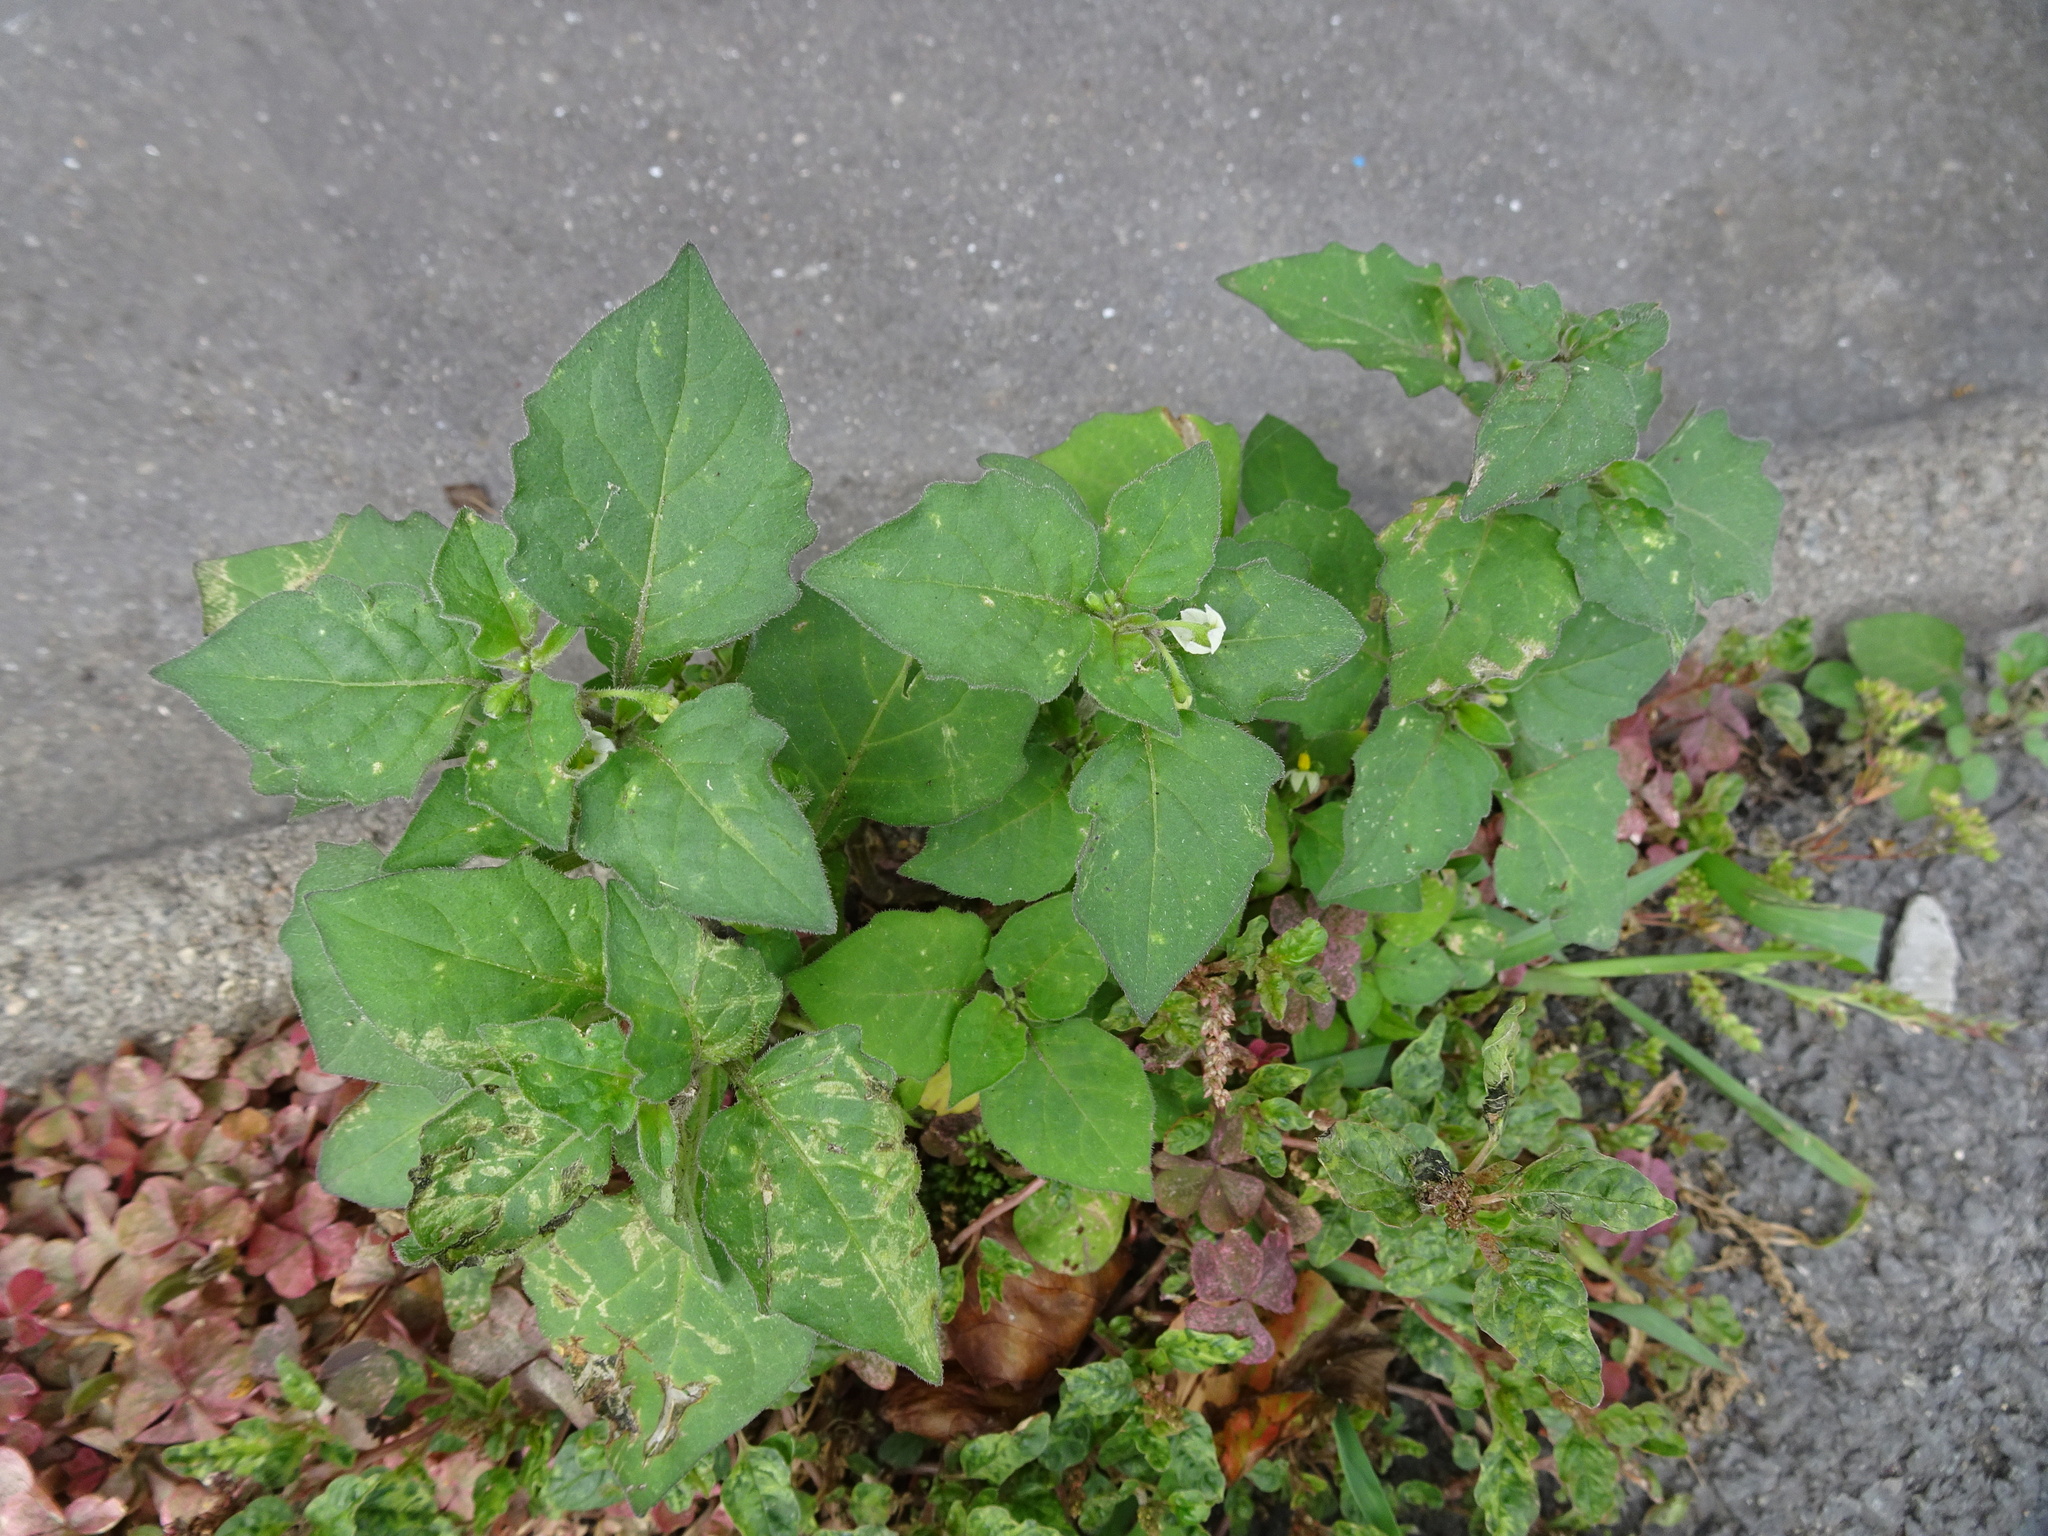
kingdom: Plantae
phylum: Tracheophyta
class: Magnoliopsida
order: Solanales
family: Solanaceae
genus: Solanum
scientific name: Solanum nigrum
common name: Black nightshade
